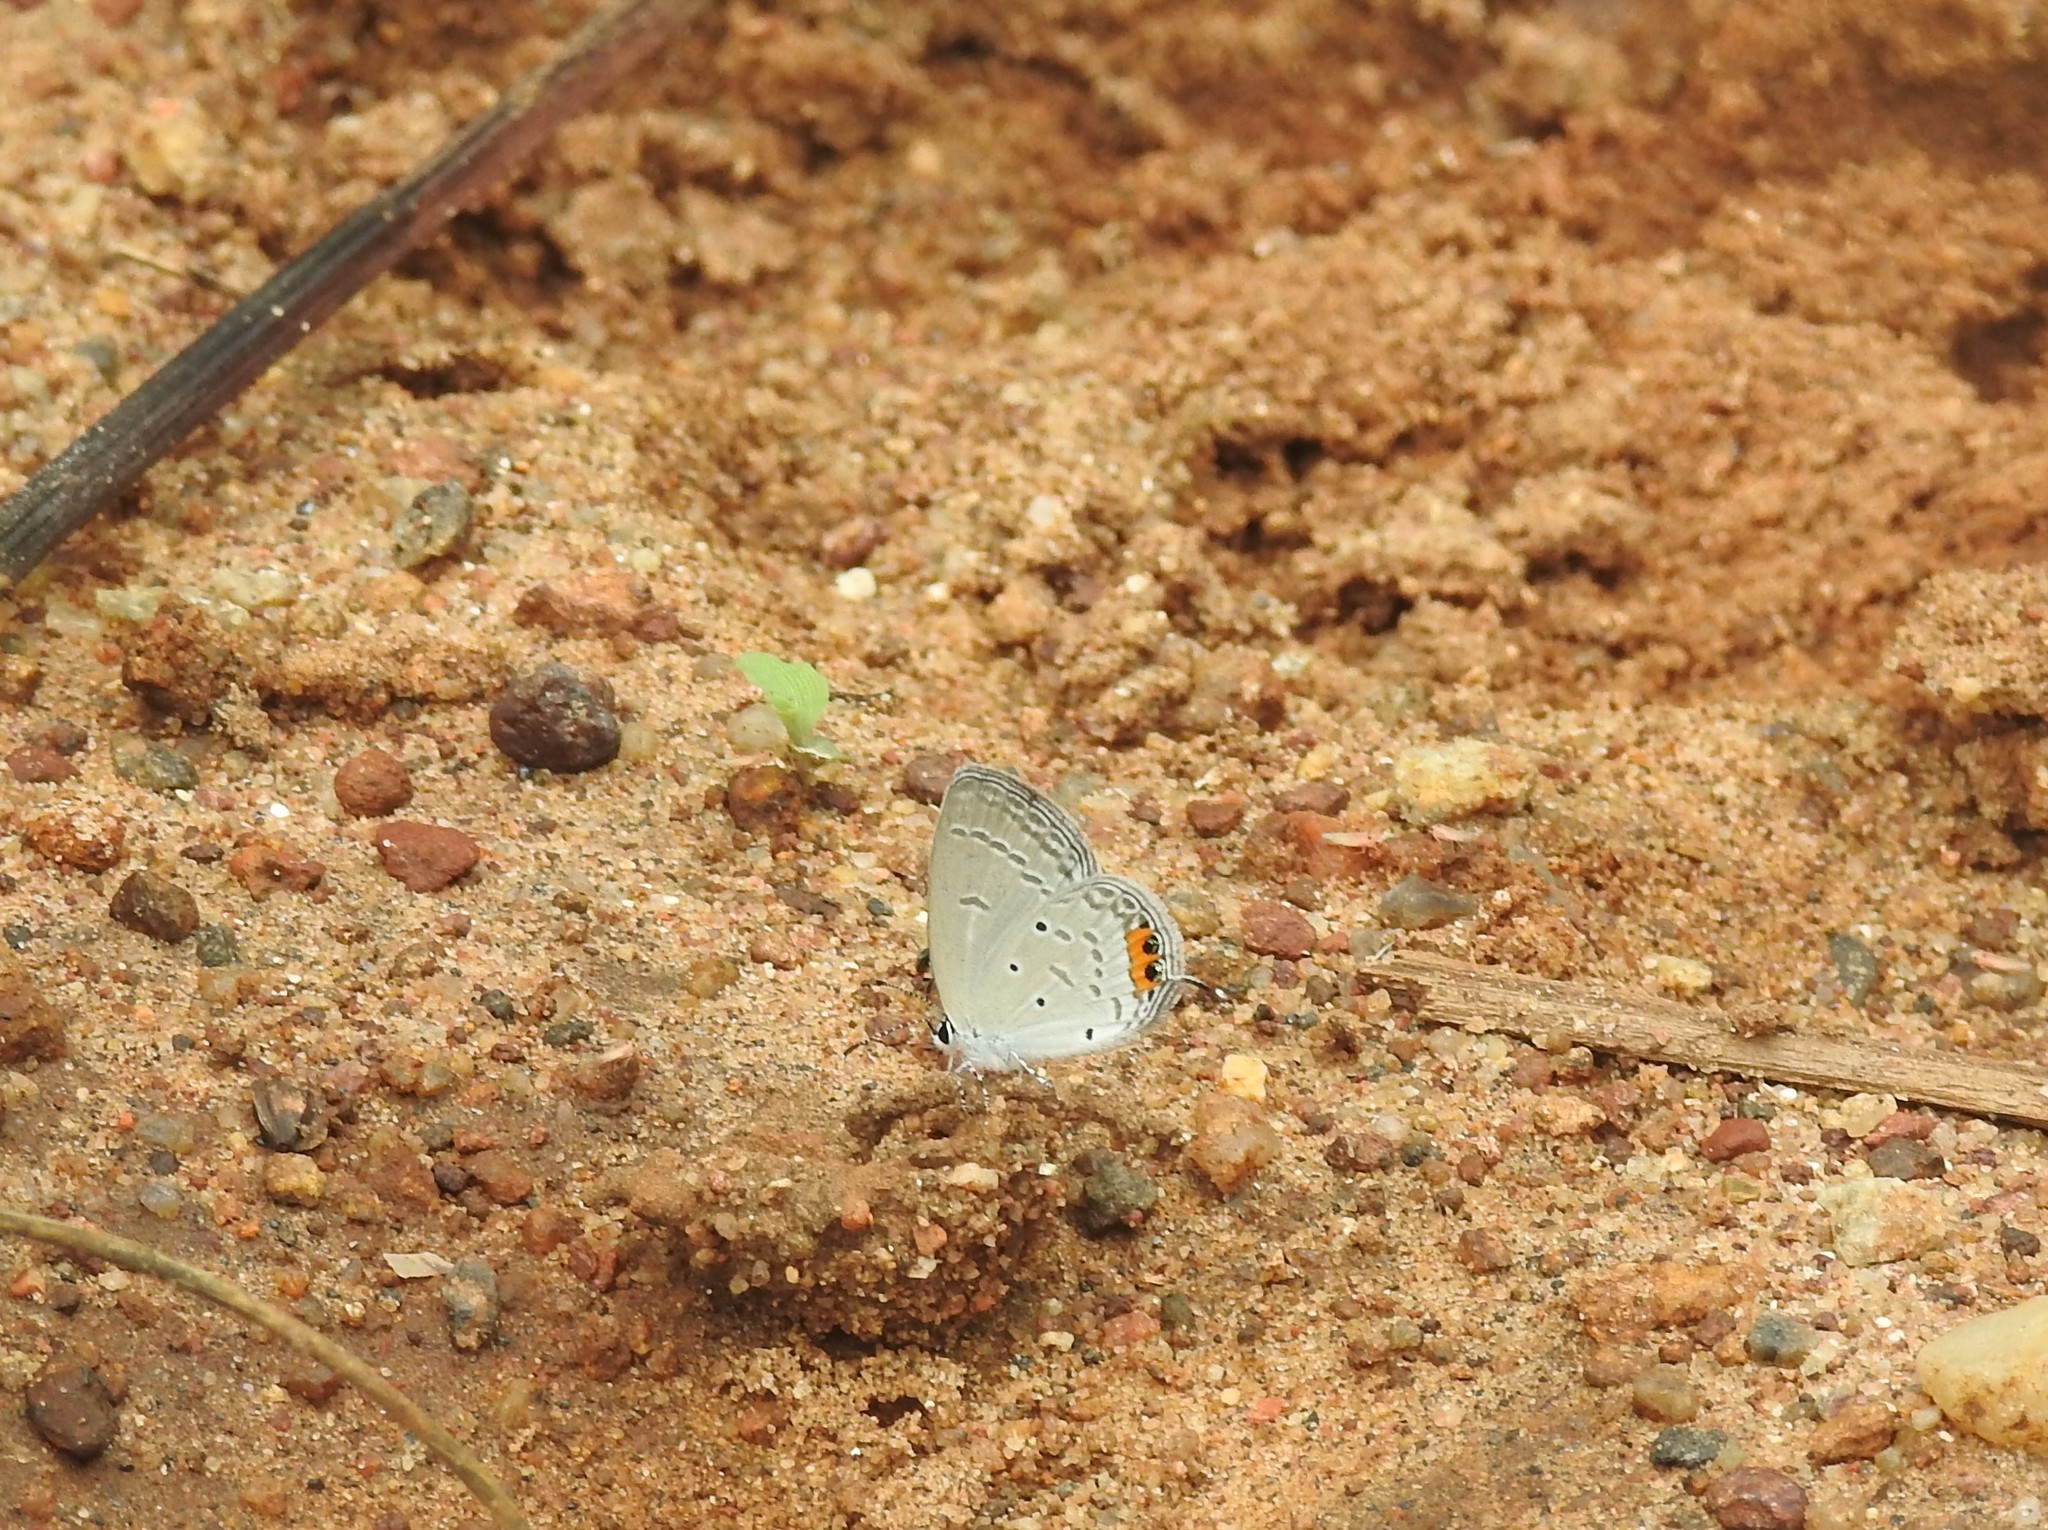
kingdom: Animalia
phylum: Arthropoda
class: Insecta
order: Lepidoptera
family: Lycaenidae
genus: Everes
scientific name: Everes lacturnus
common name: Orange-tipped pea-blue
